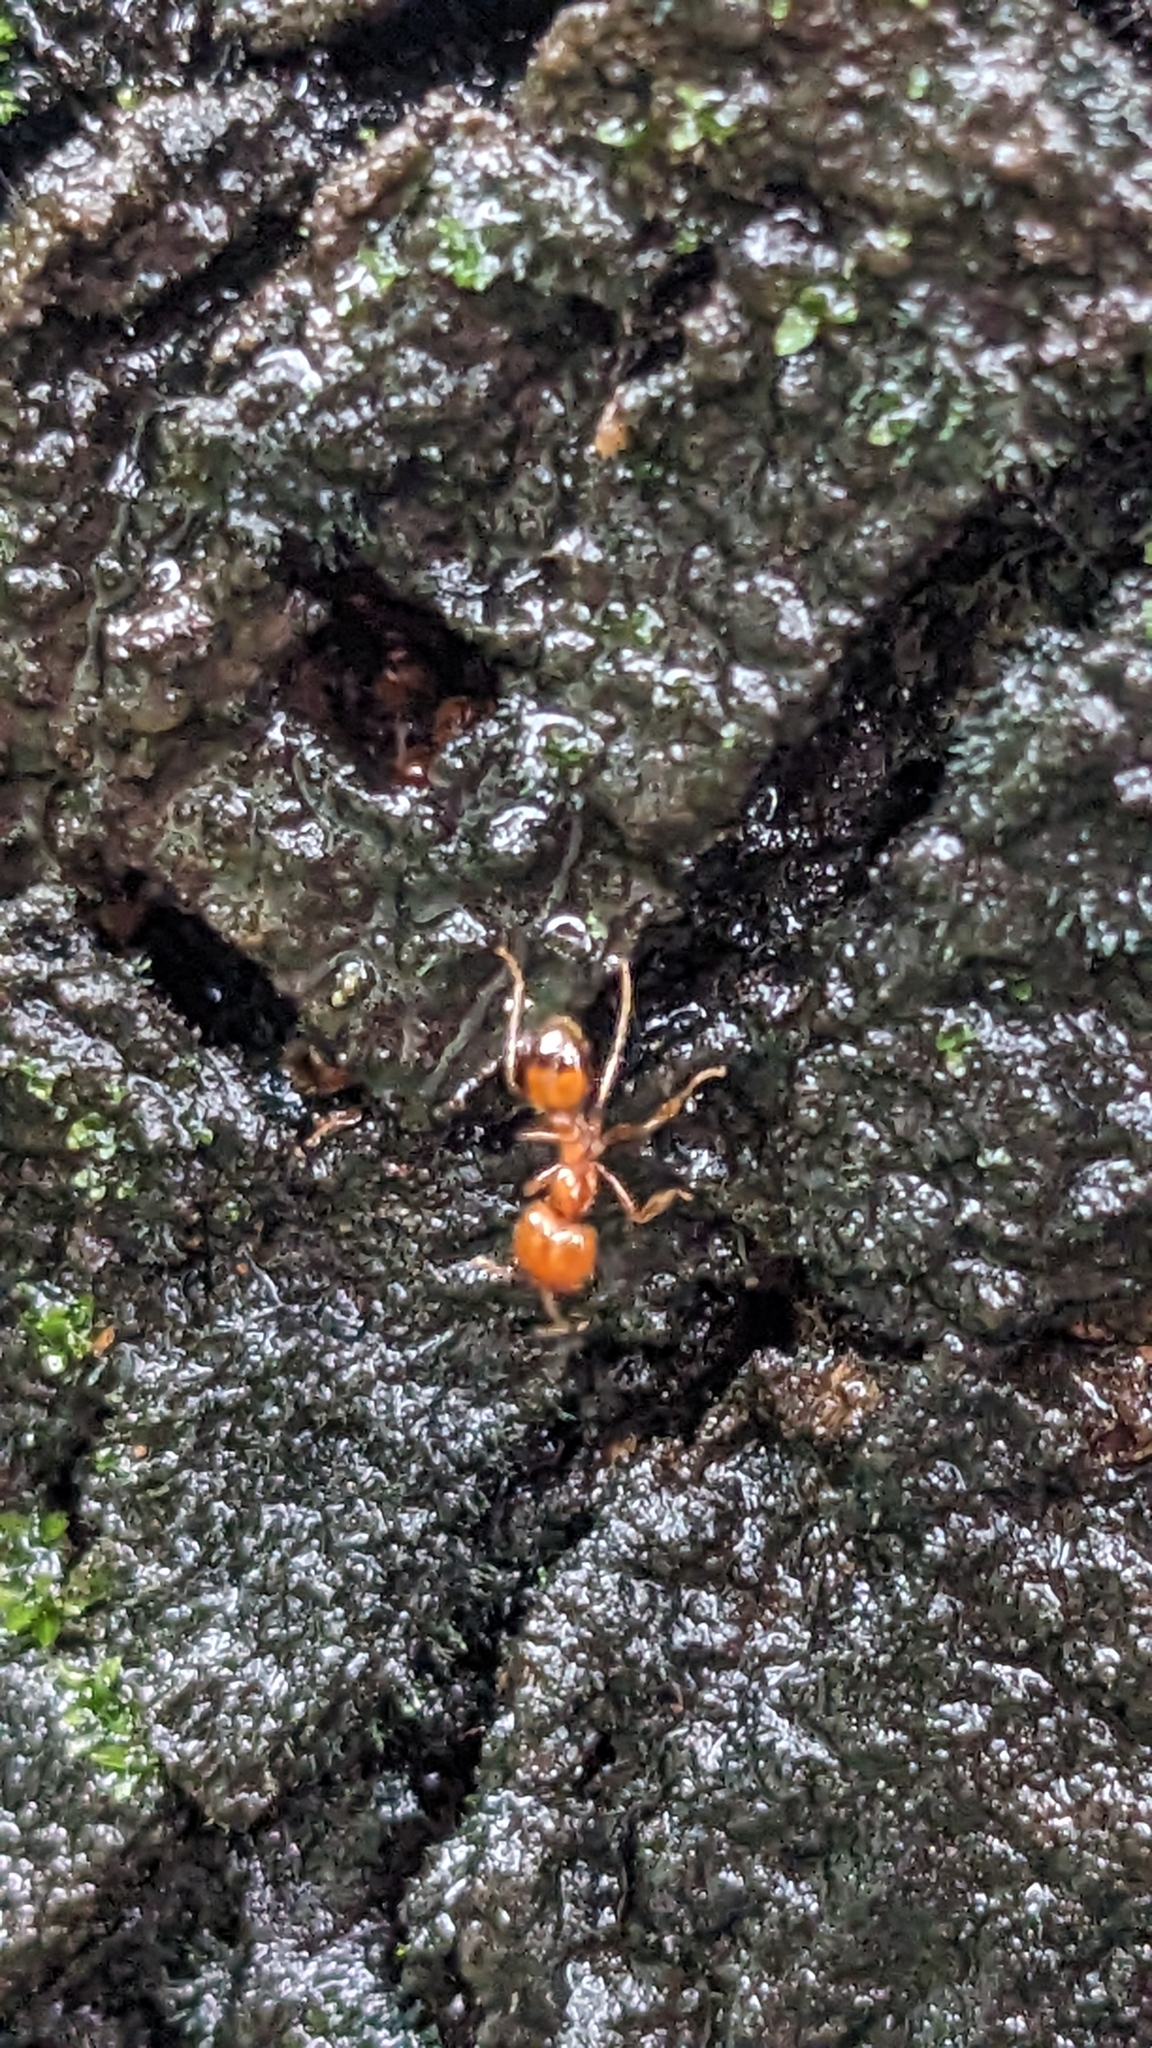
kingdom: Animalia
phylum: Arthropoda
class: Insecta
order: Hymenoptera
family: Formicidae
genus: Solenopsis
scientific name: Solenopsis geminata
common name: Tropical fire ant
